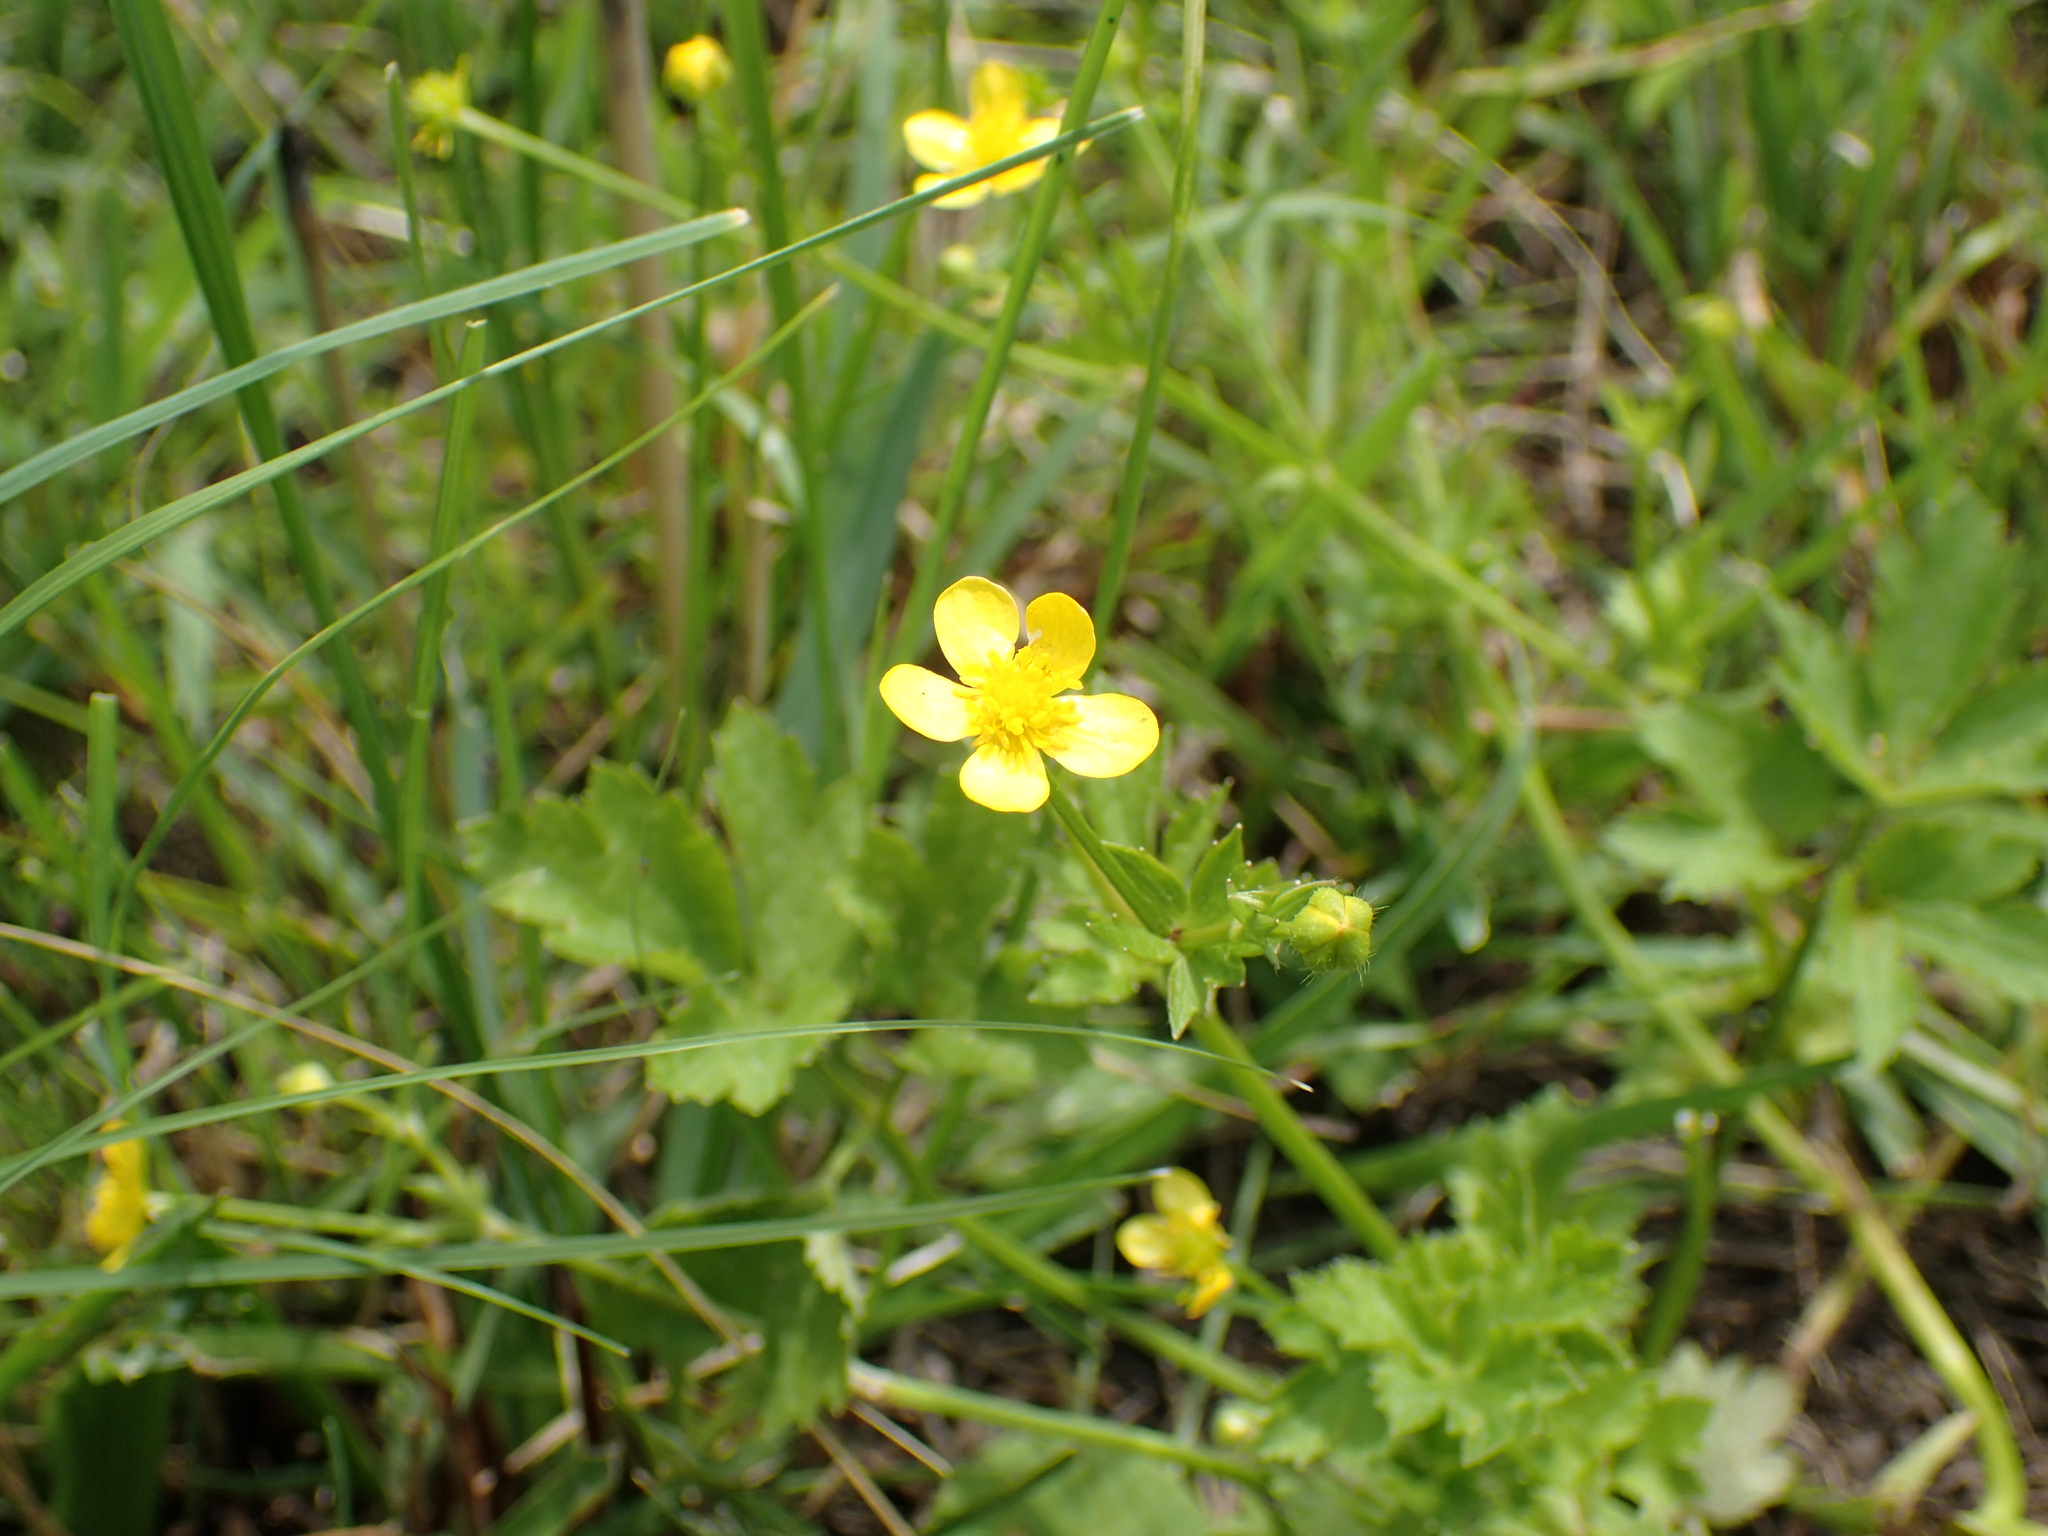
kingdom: Plantae
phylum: Tracheophyta
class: Magnoliopsida
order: Ranunculales
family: Ranunculaceae
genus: Ranunculus
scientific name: Ranunculus multifidus
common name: Wild buttercup
